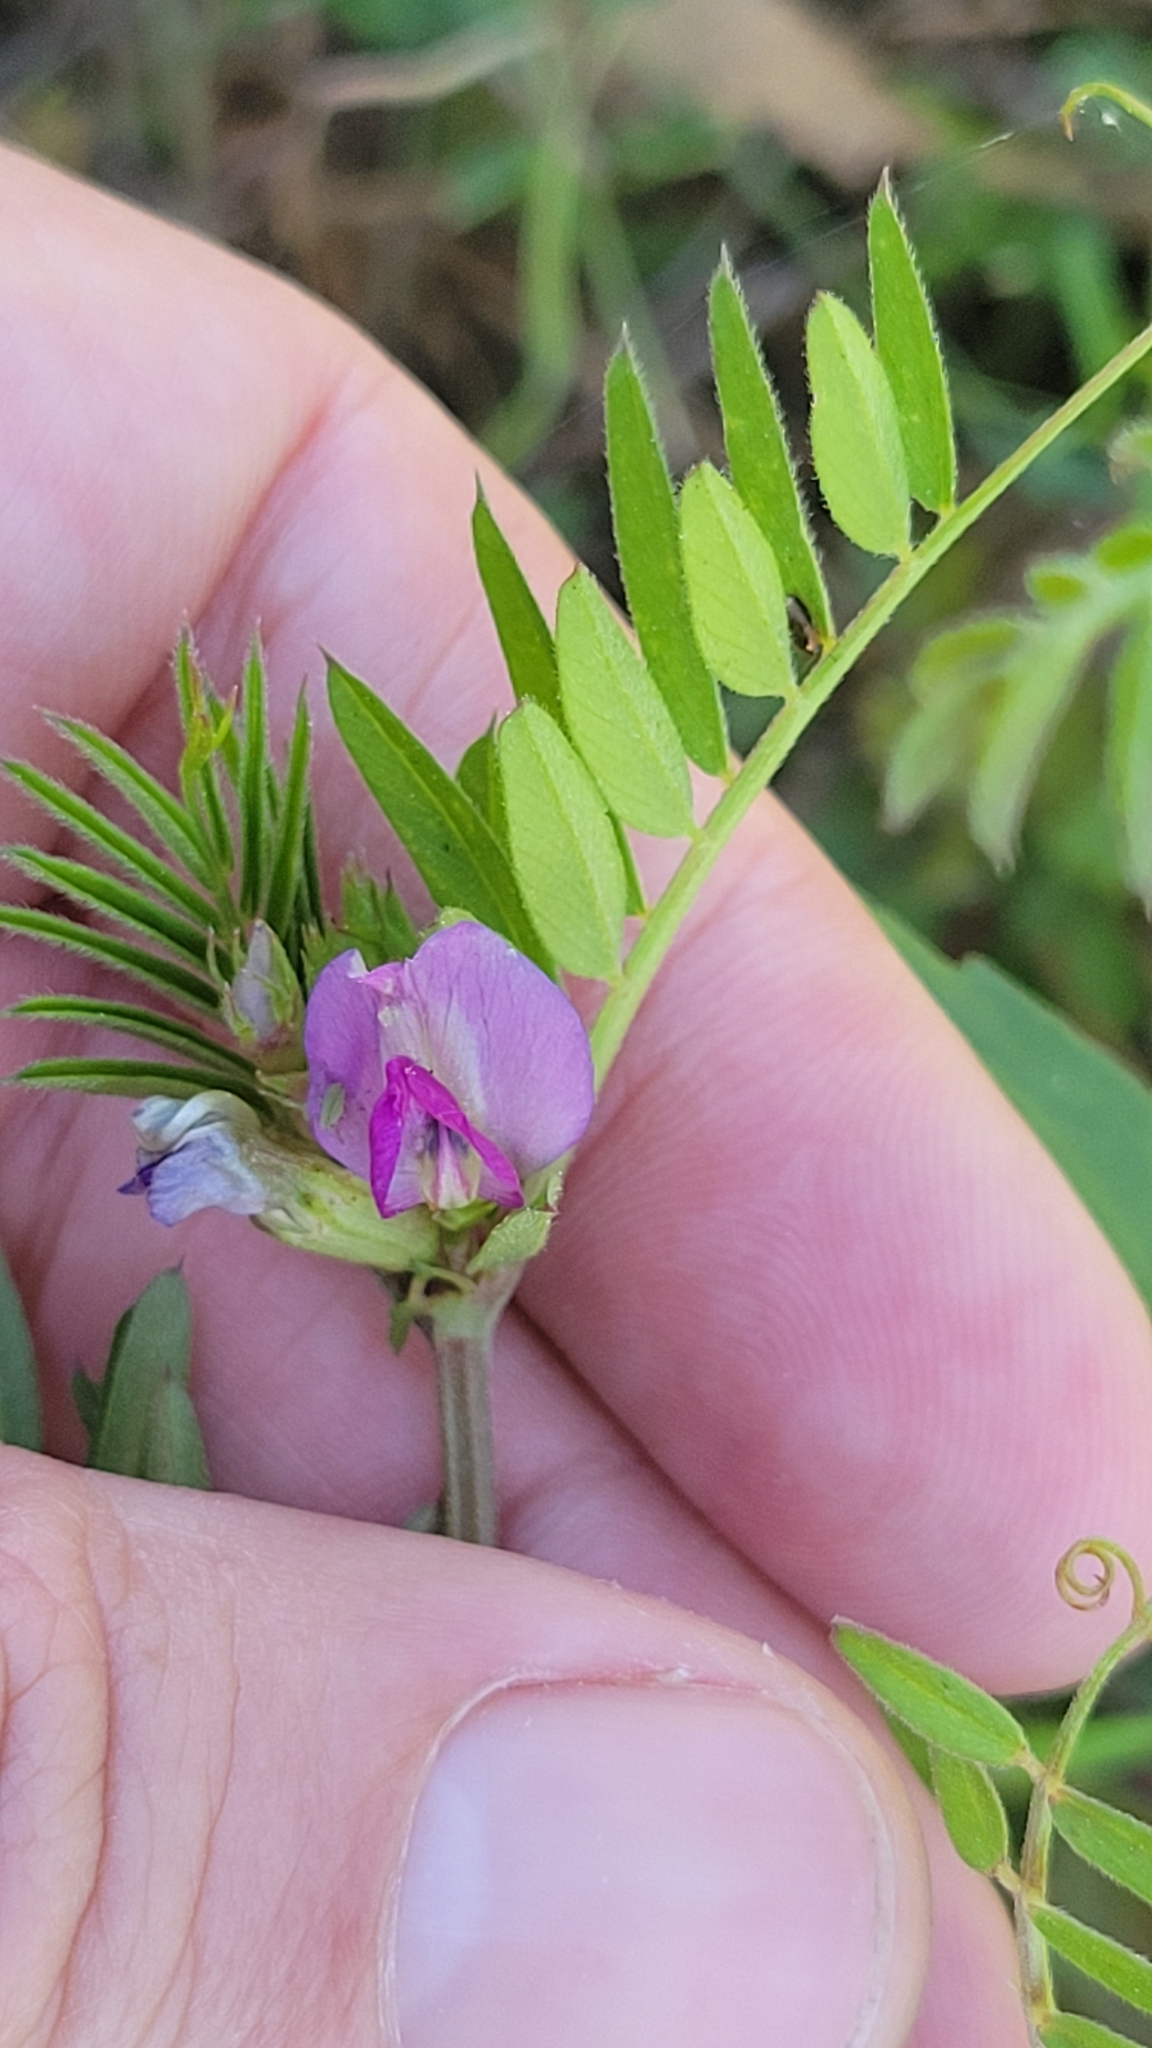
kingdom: Plantae
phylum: Tracheophyta
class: Magnoliopsida
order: Fabales
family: Fabaceae
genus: Vicia
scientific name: Vicia sativa
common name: Garden vetch
